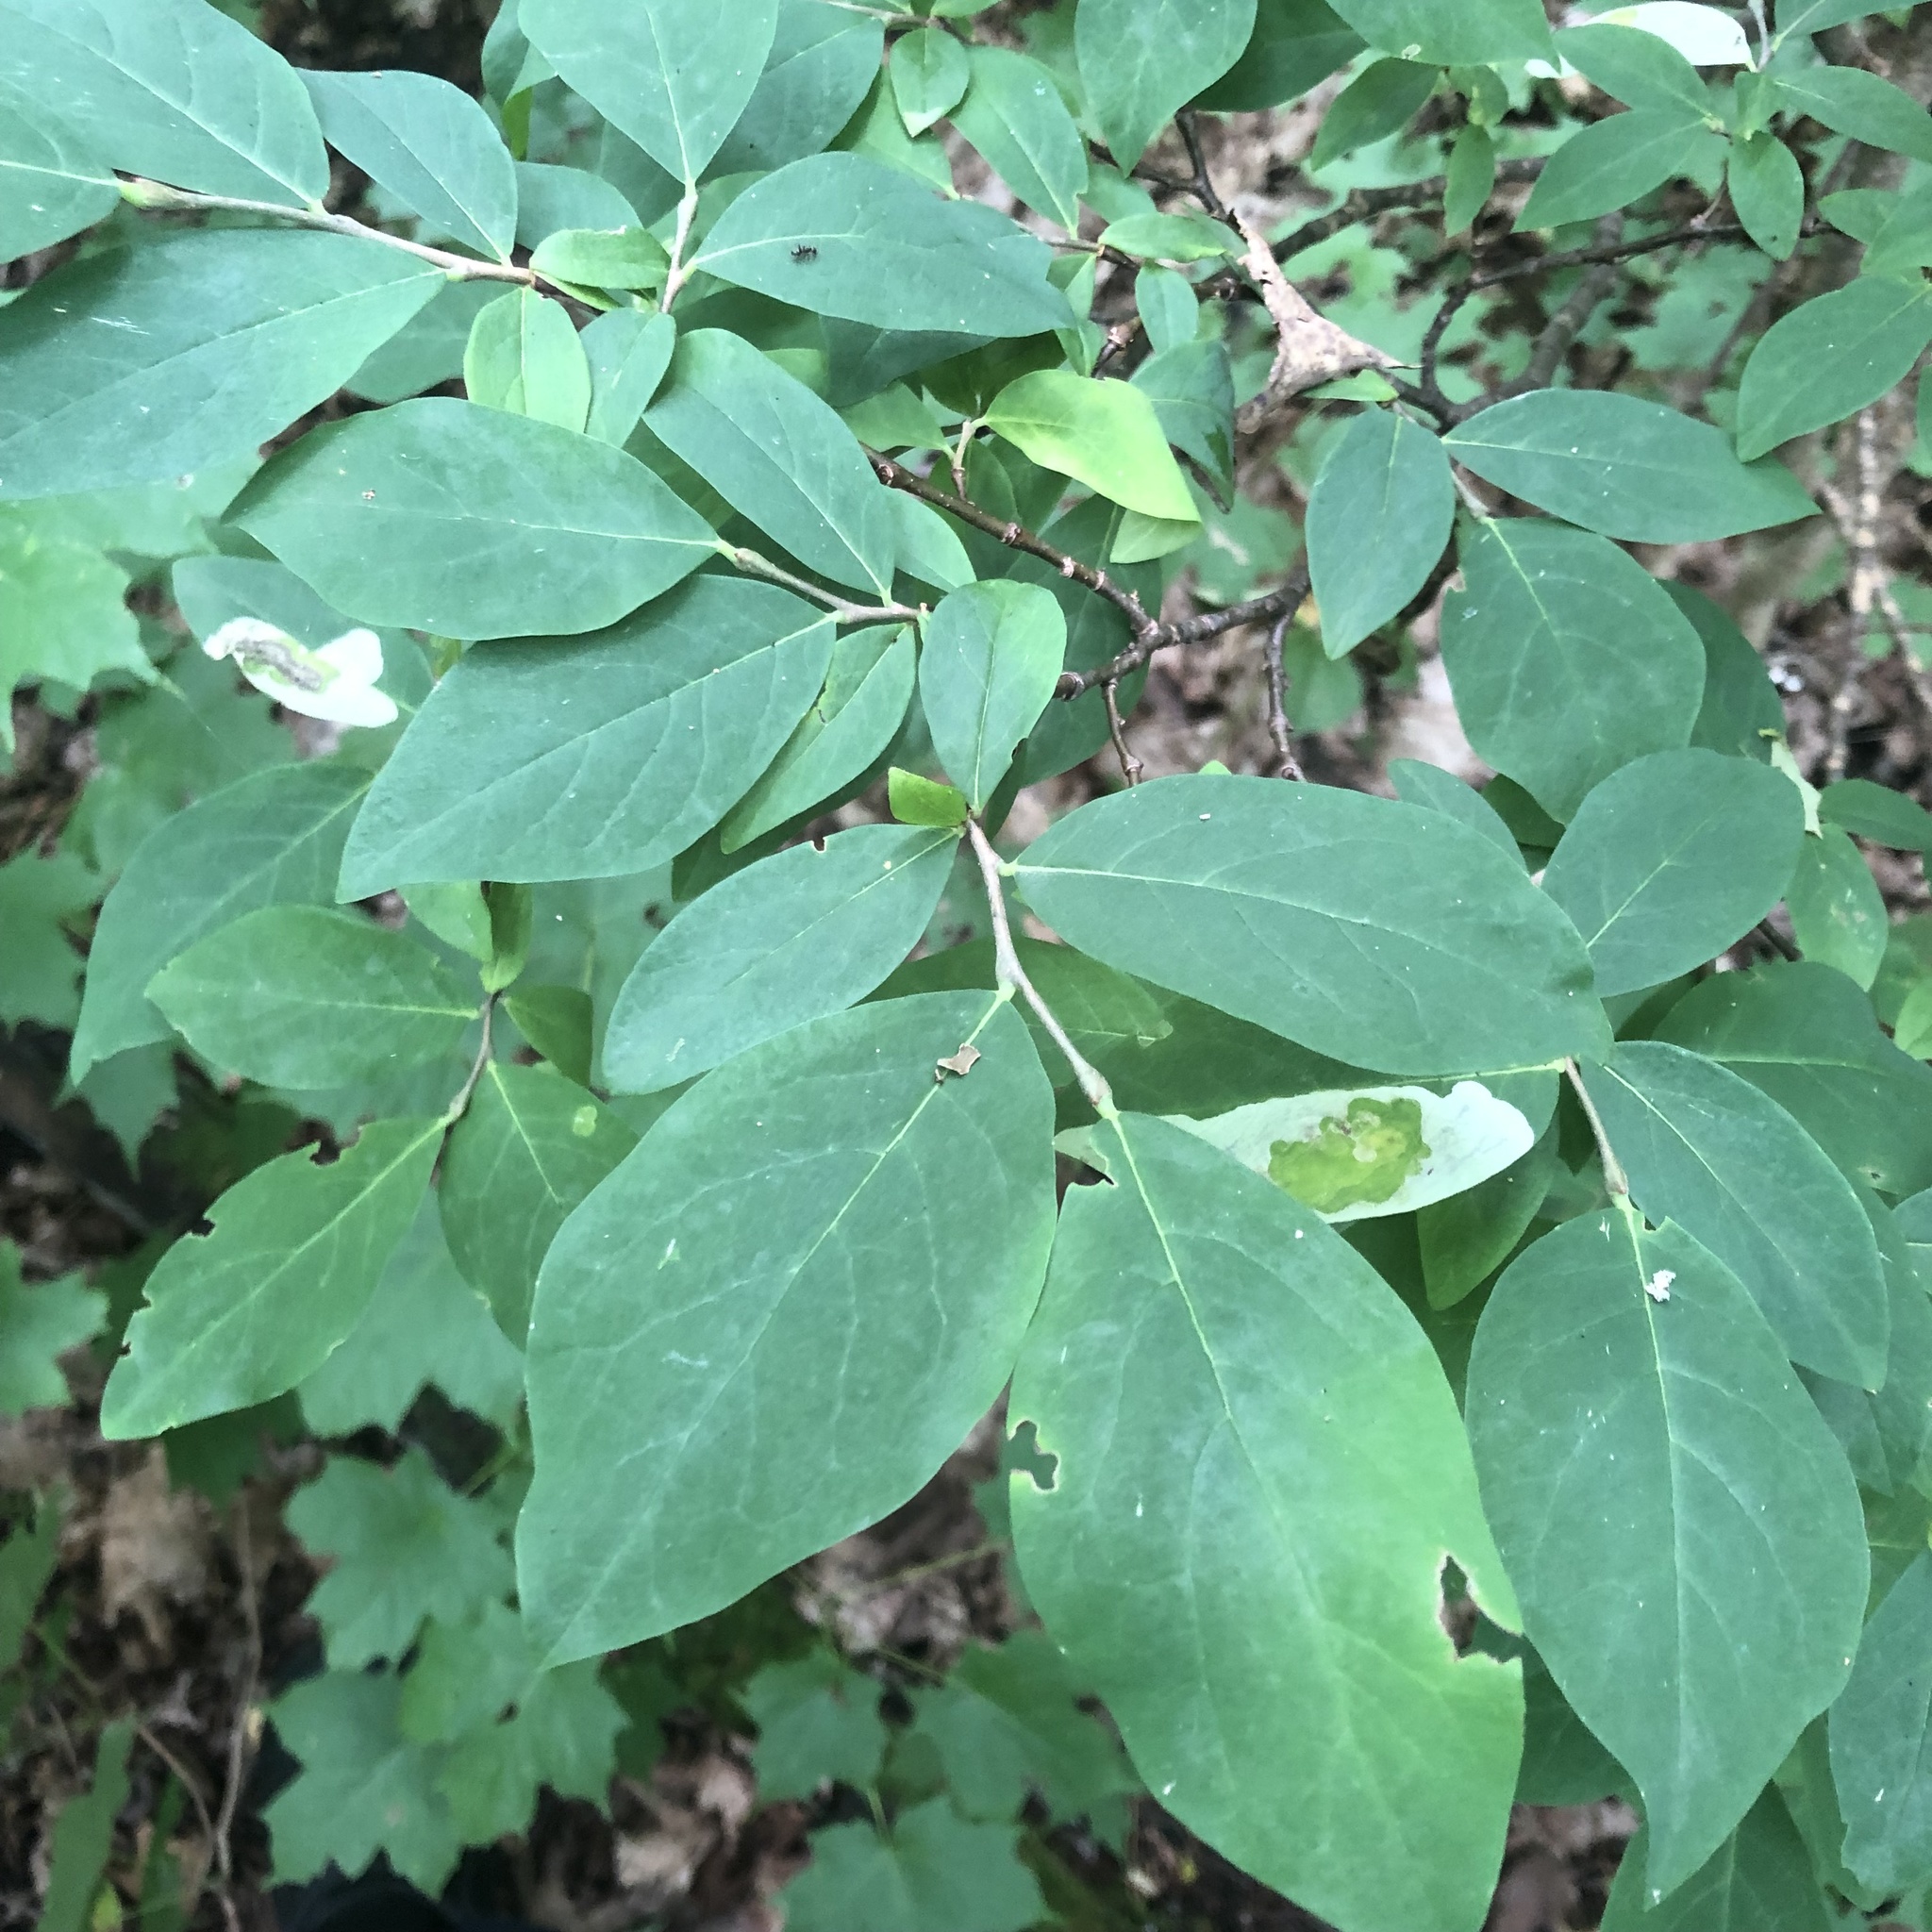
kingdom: Plantae
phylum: Tracheophyta
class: Magnoliopsida
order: Malvales
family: Thymelaeaceae
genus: Dirca
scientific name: Dirca palustris
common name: Leatherwood
